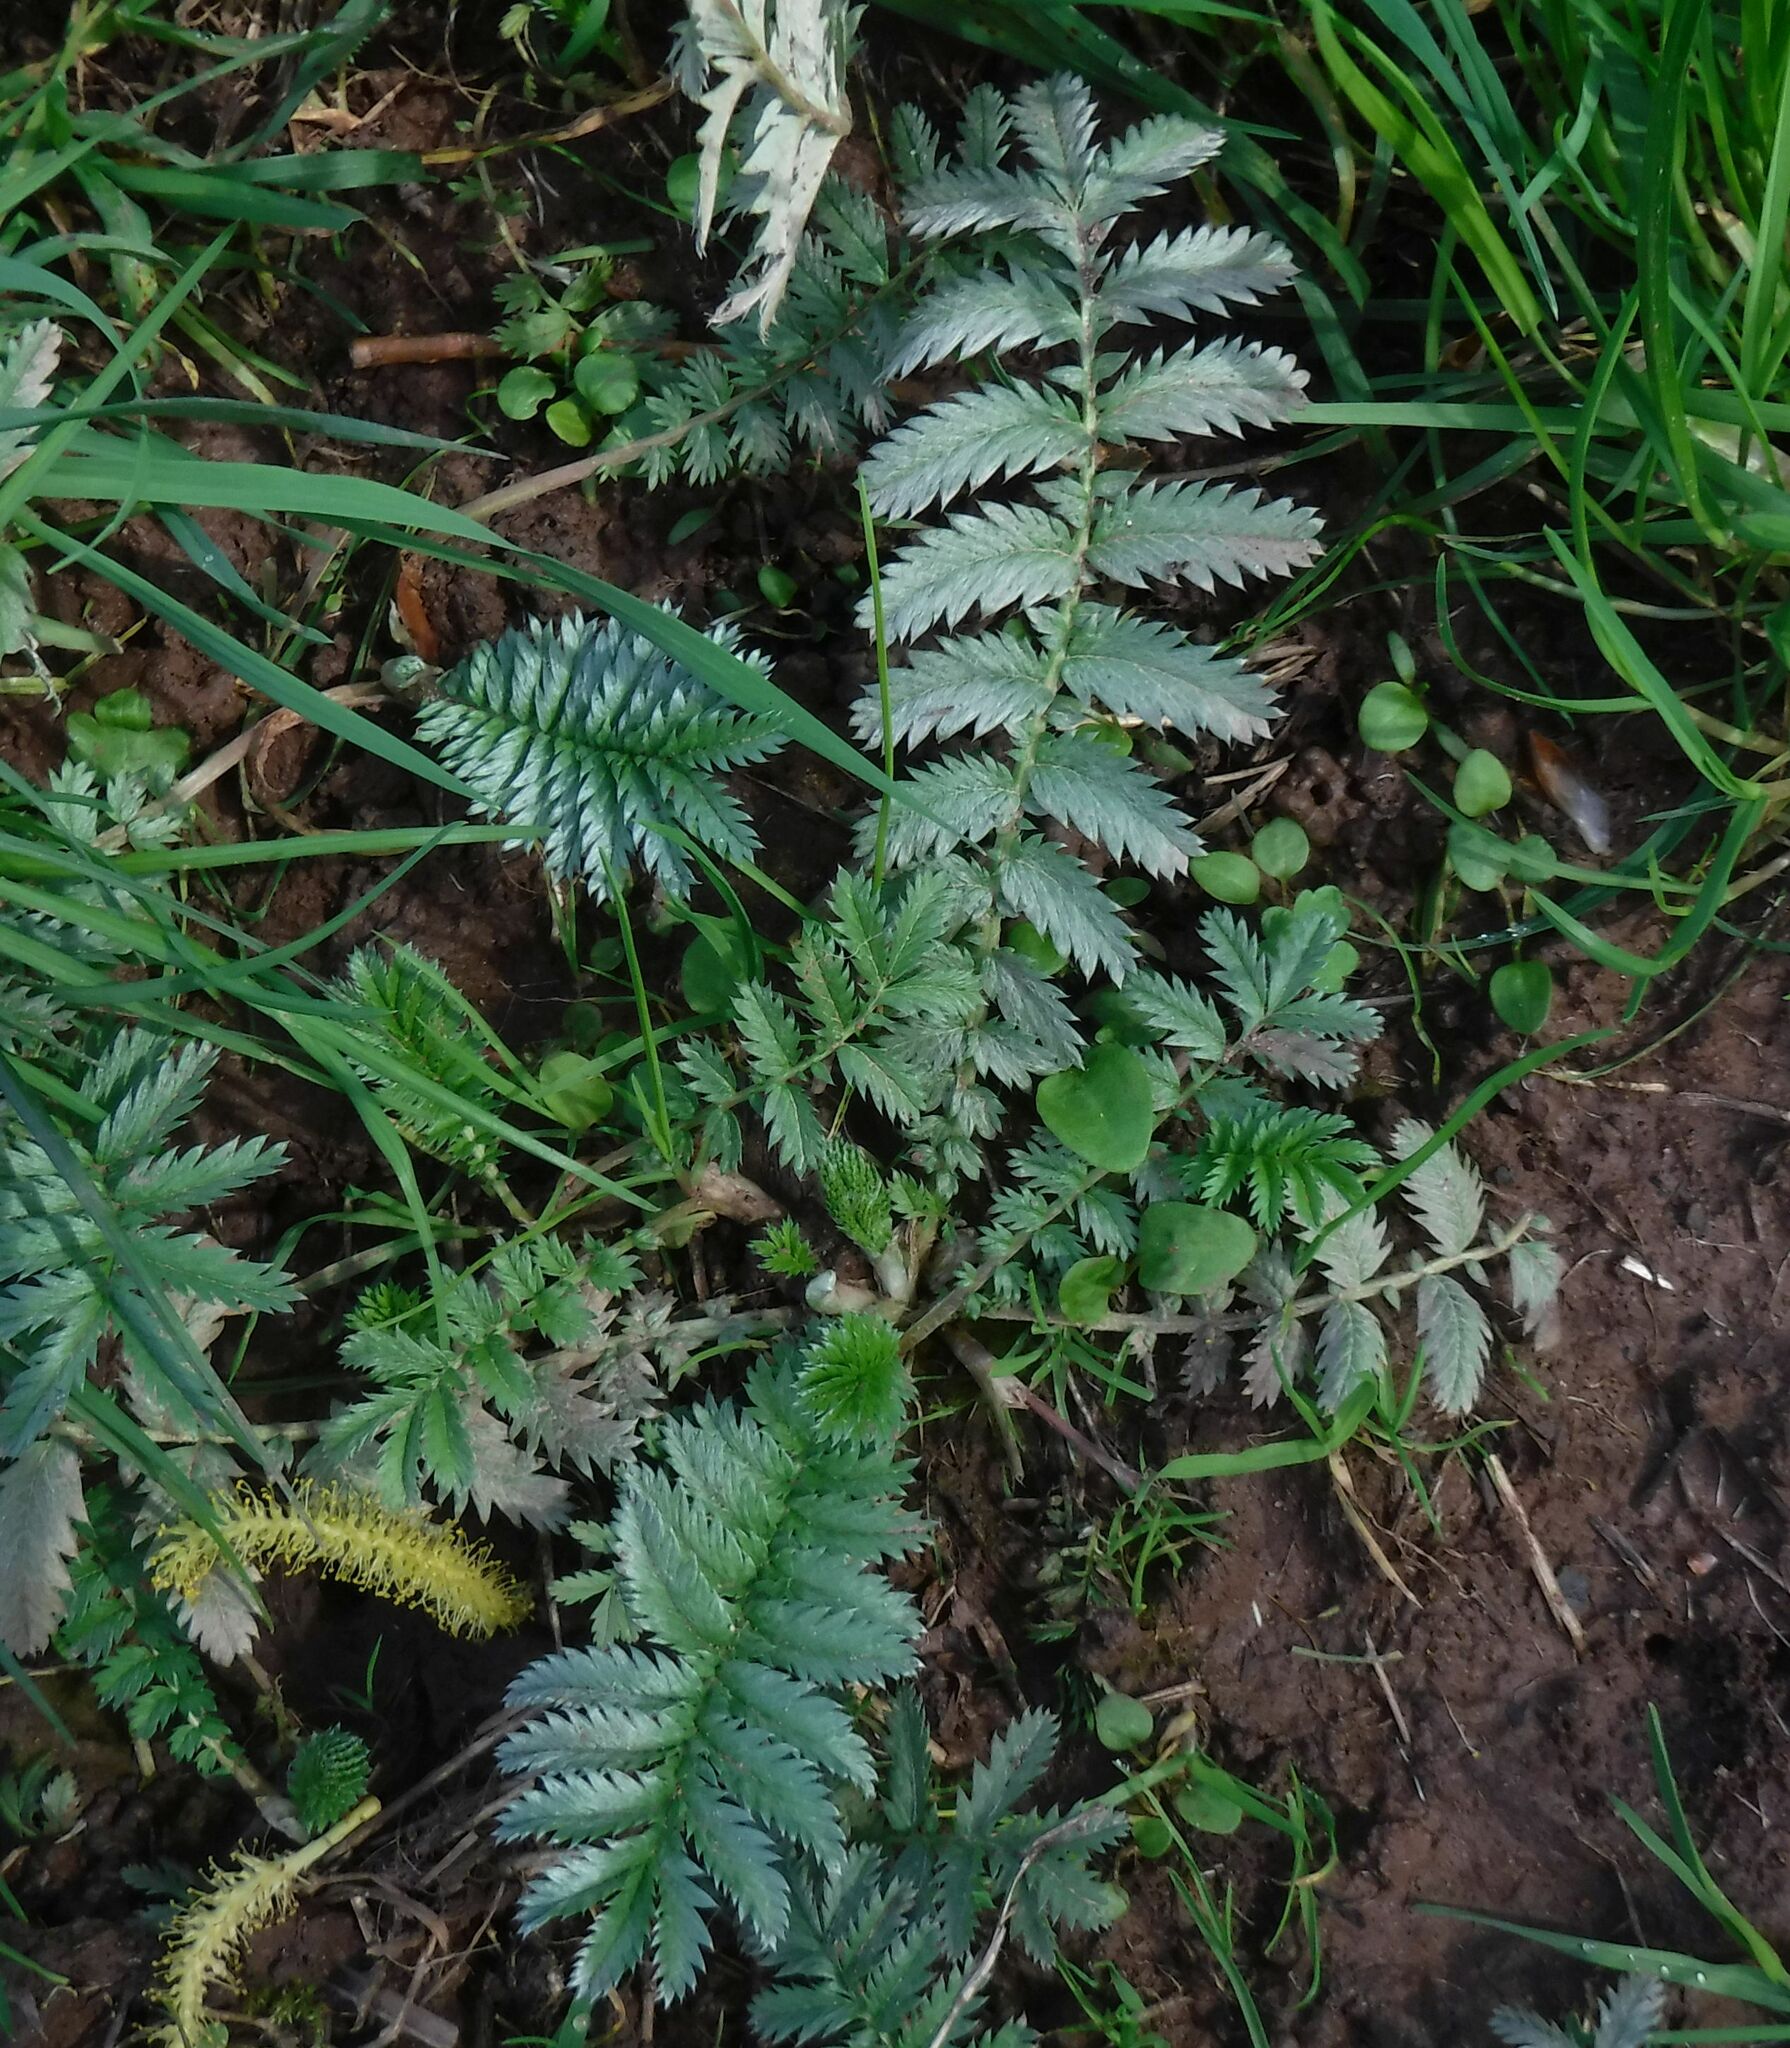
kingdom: Plantae
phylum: Tracheophyta
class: Magnoliopsida
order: Rosales
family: Rosaceae
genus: Argentina
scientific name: Argentina anserina
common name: Common silverweed
